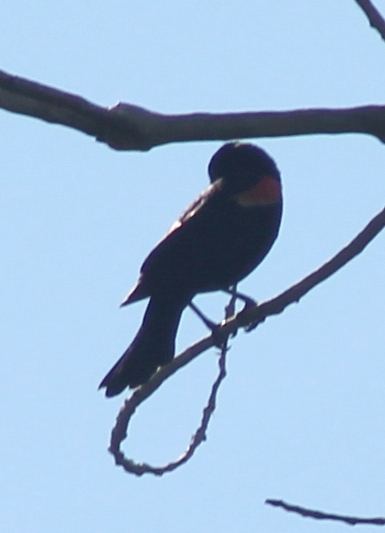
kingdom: Animalia
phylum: Chordata
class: Aves
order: Passeriformes
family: Icteridae
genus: Agelaius
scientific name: Agelaius phoeniceus
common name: Red-winged blackbird
